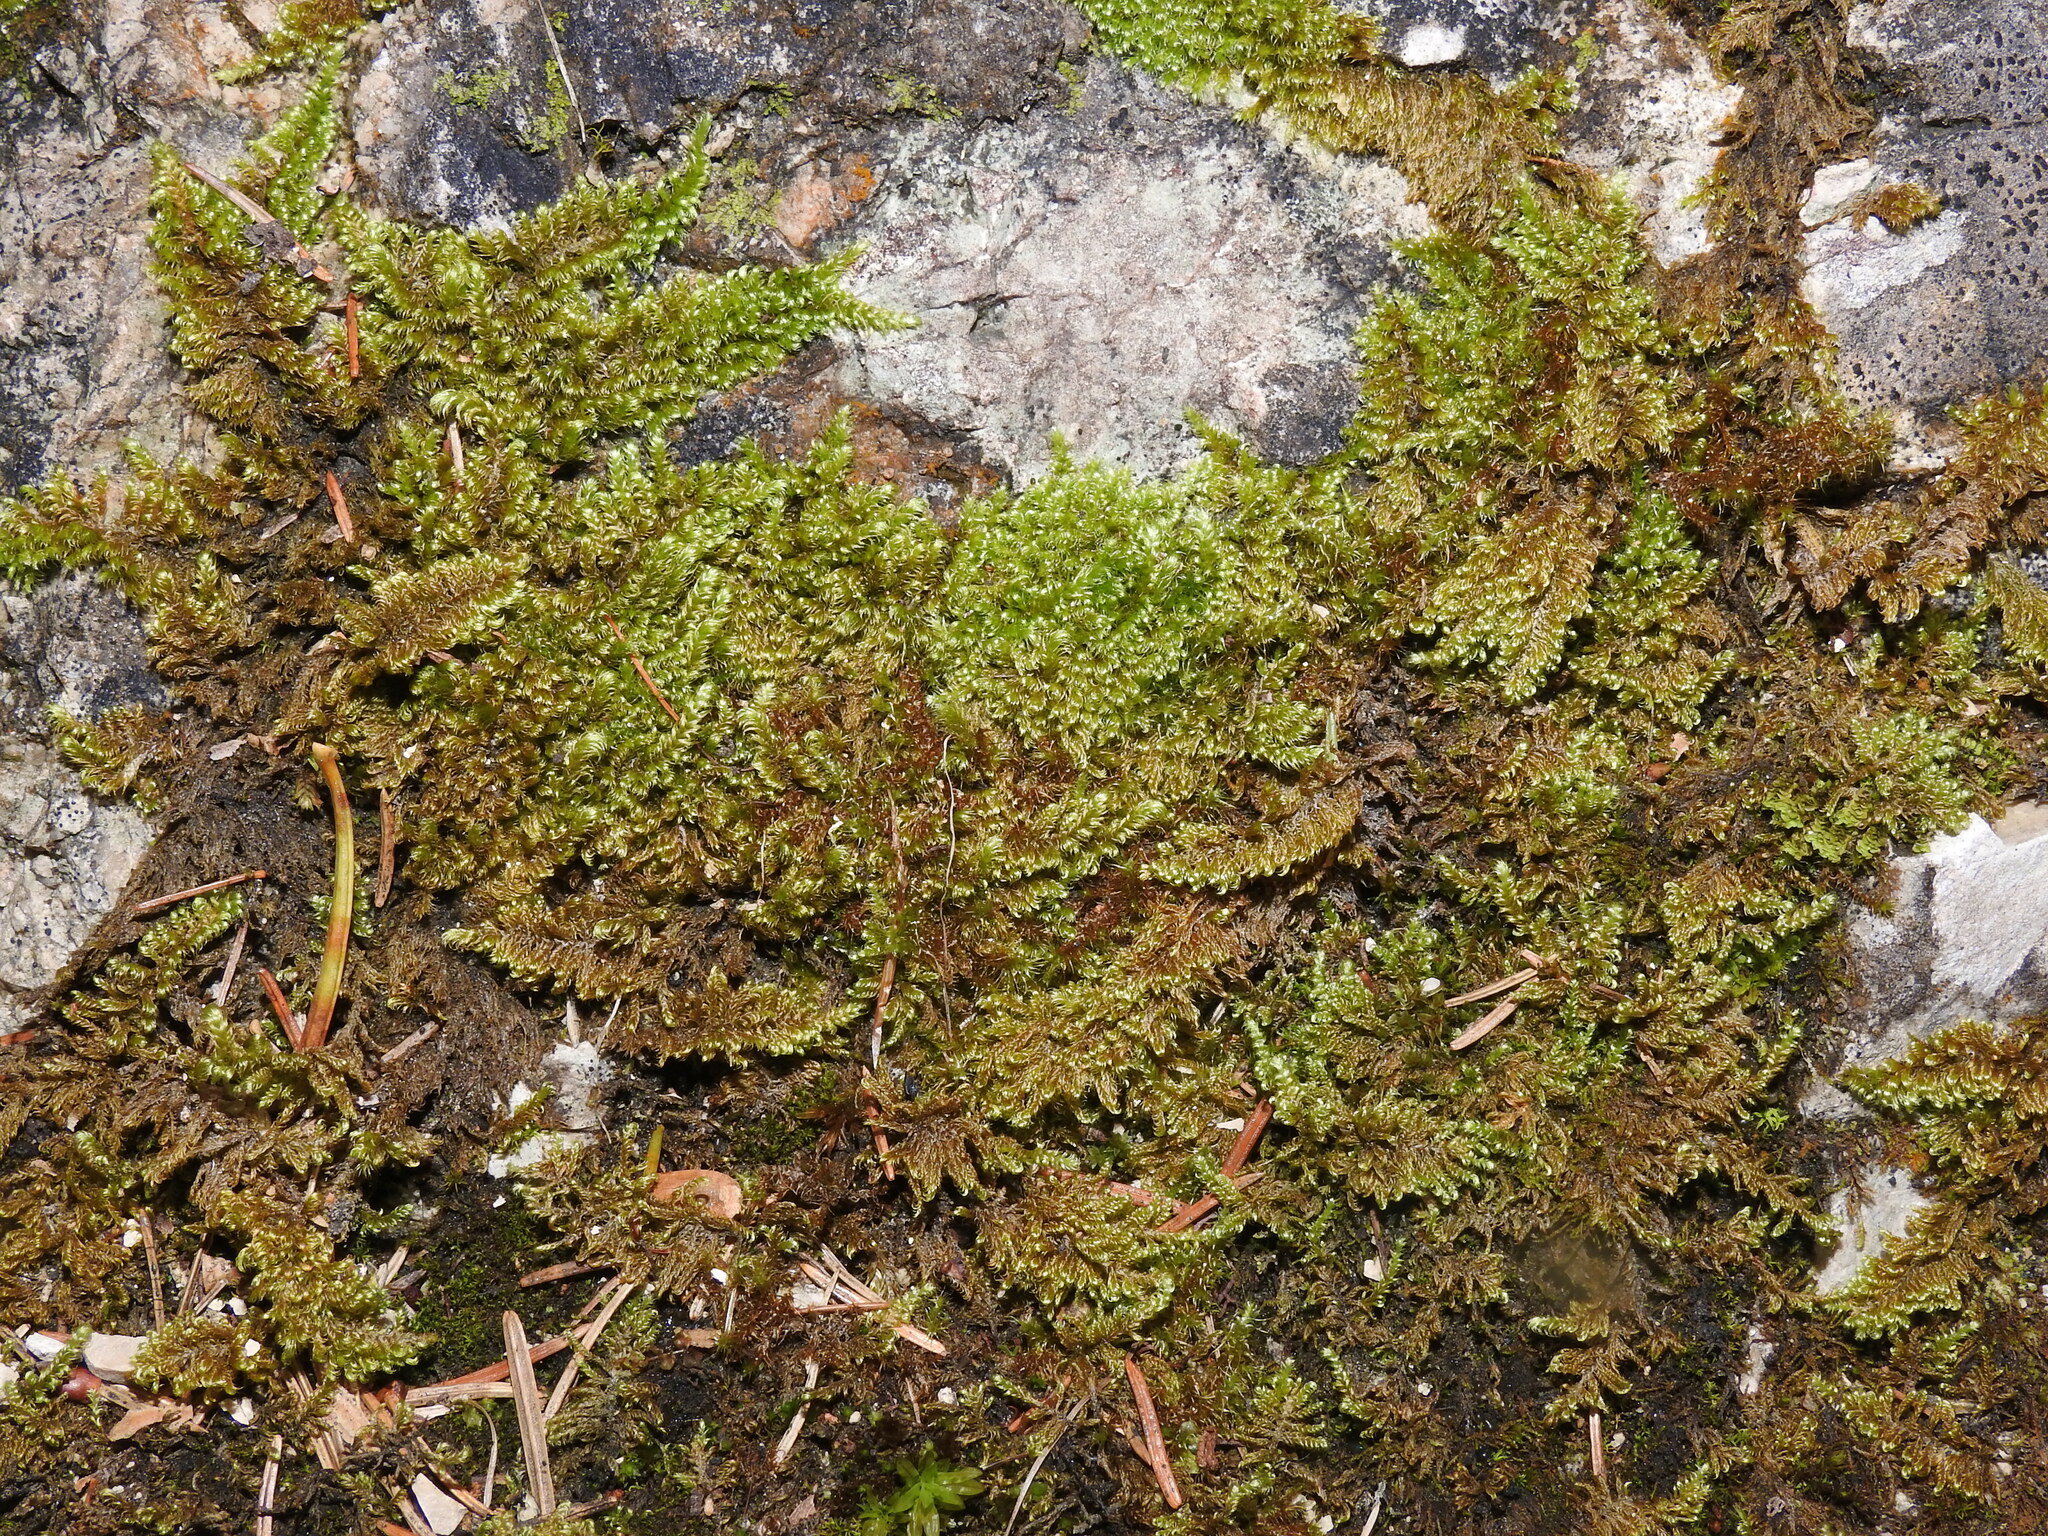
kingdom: Plantae
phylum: Bryophyta
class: Bryopsida
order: Hypnales
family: Myuriaceae
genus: Ctenidium
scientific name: Ctenidium molluscum
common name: Chalk comb-moss
